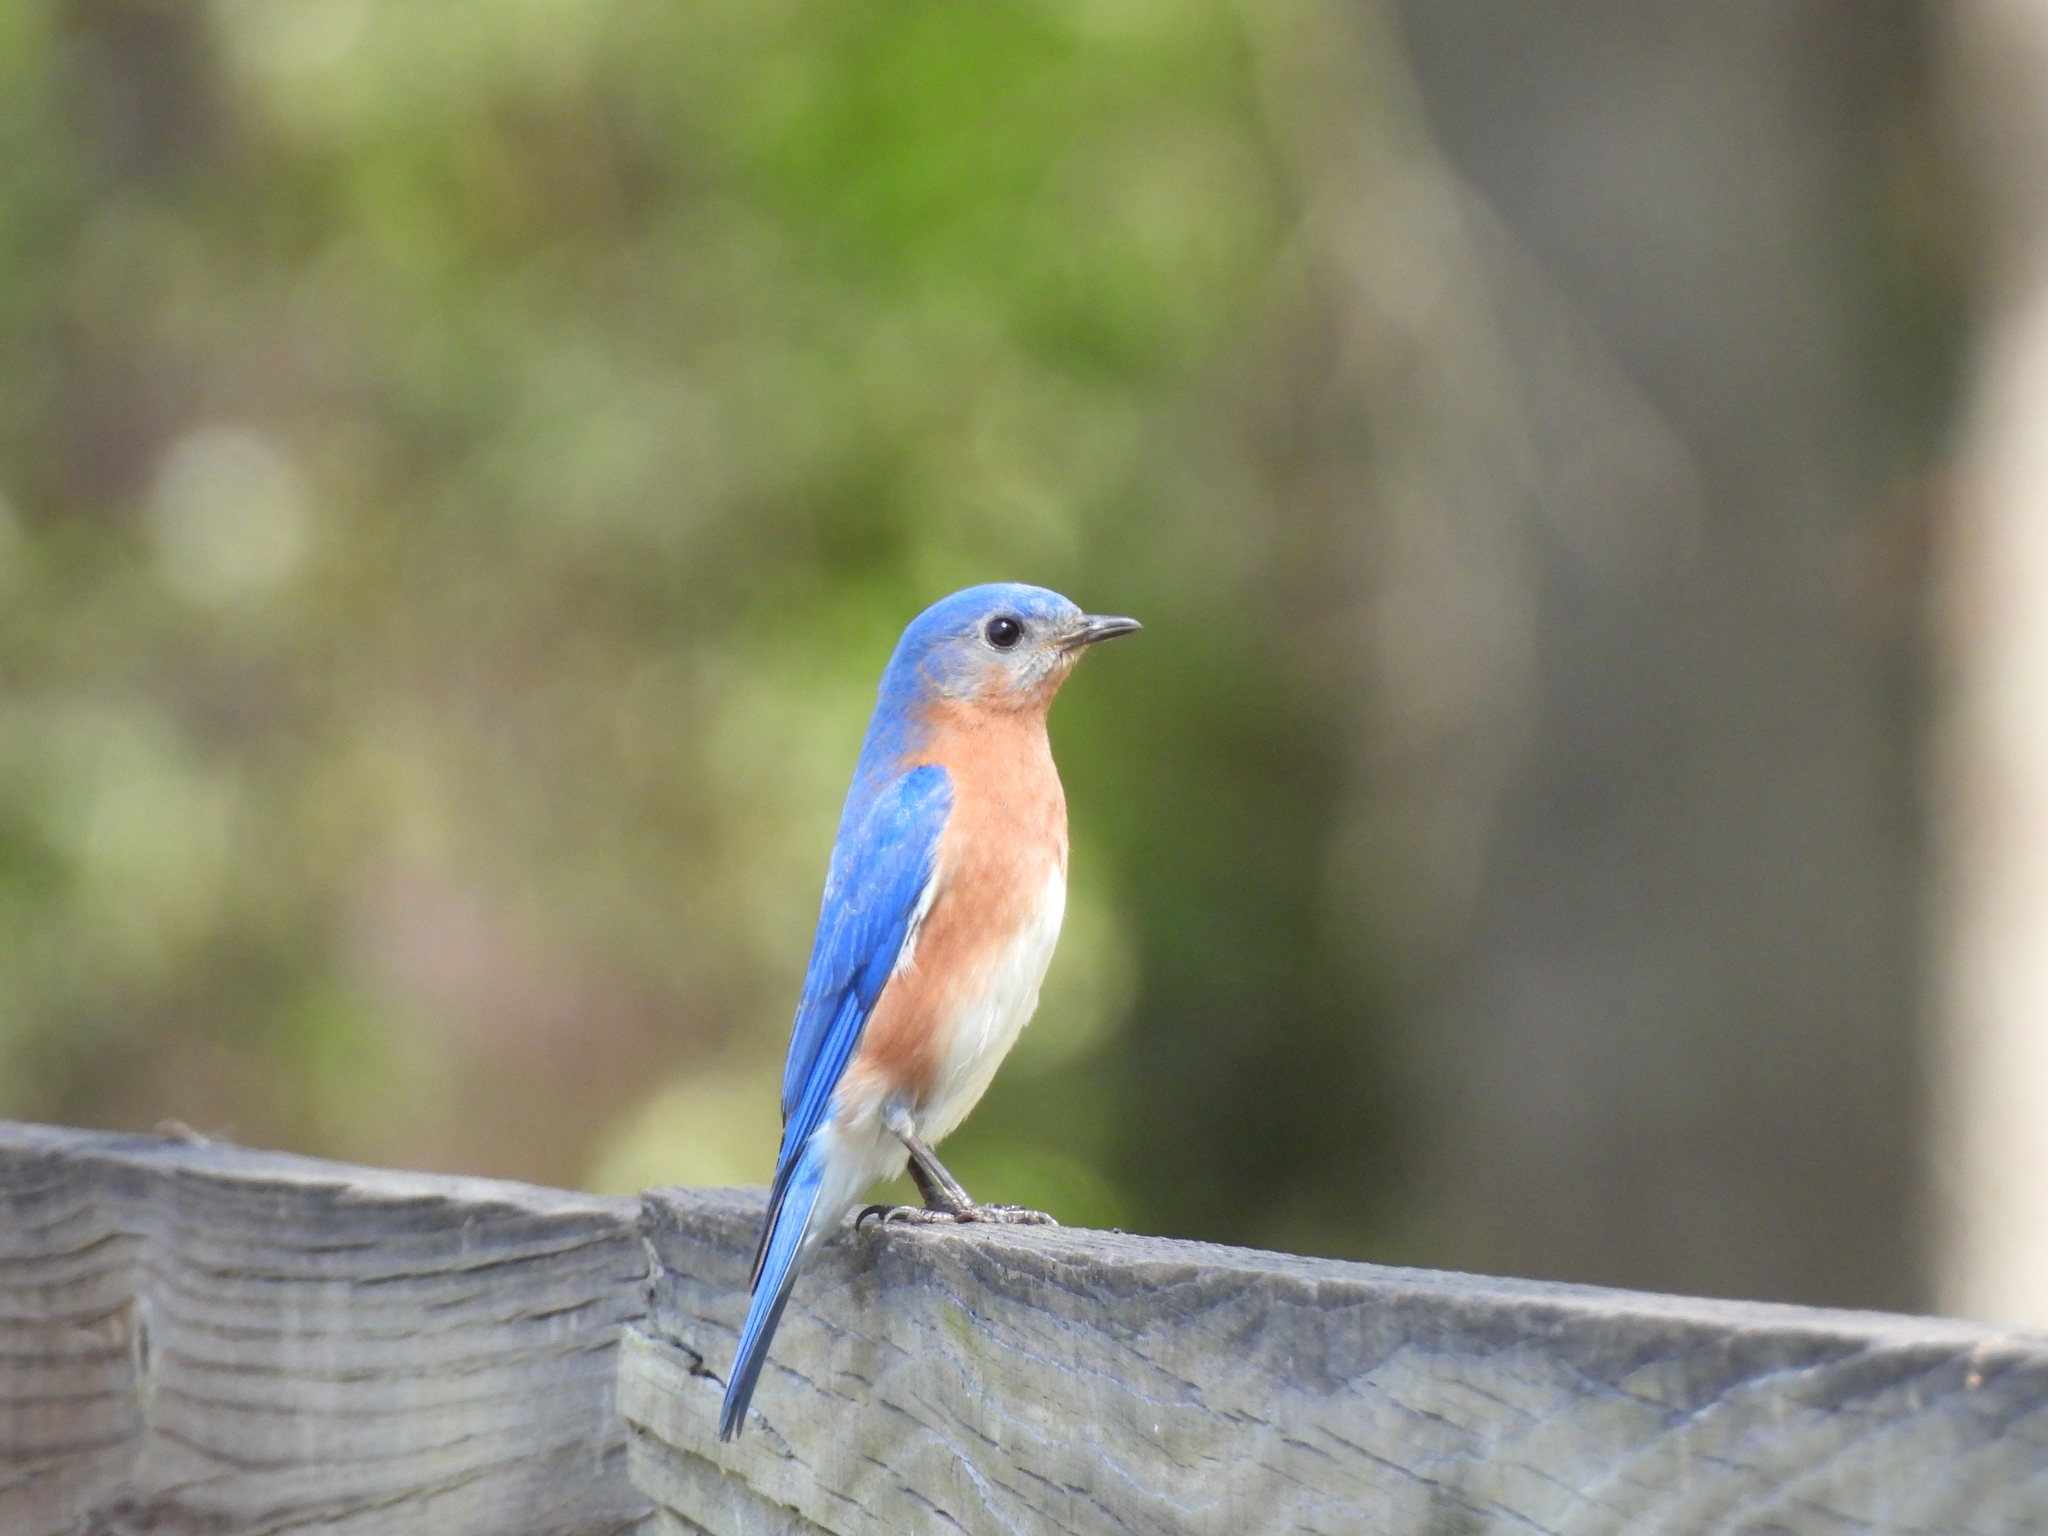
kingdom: Animalia
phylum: Chordata
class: Aves
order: Passeriformes
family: Turdidae
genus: Sialia
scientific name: Sialia sialis
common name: Eastern bluebird
